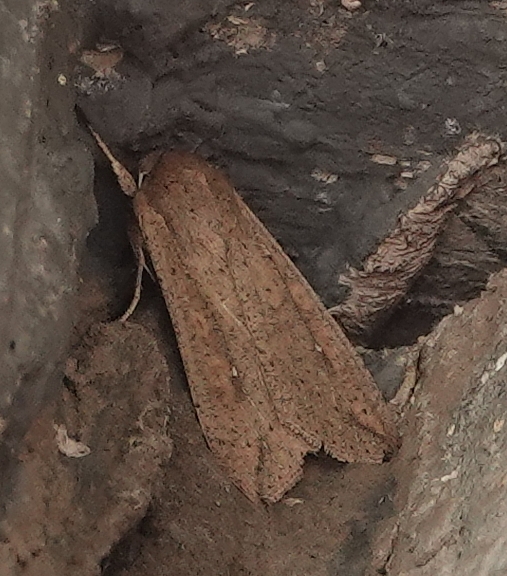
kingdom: Animalia
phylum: Arthropoda
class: Insecta
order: Lepidoptera
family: Noctuidae
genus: Mythimna
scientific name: Mythimna unipuncta
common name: White-speck
